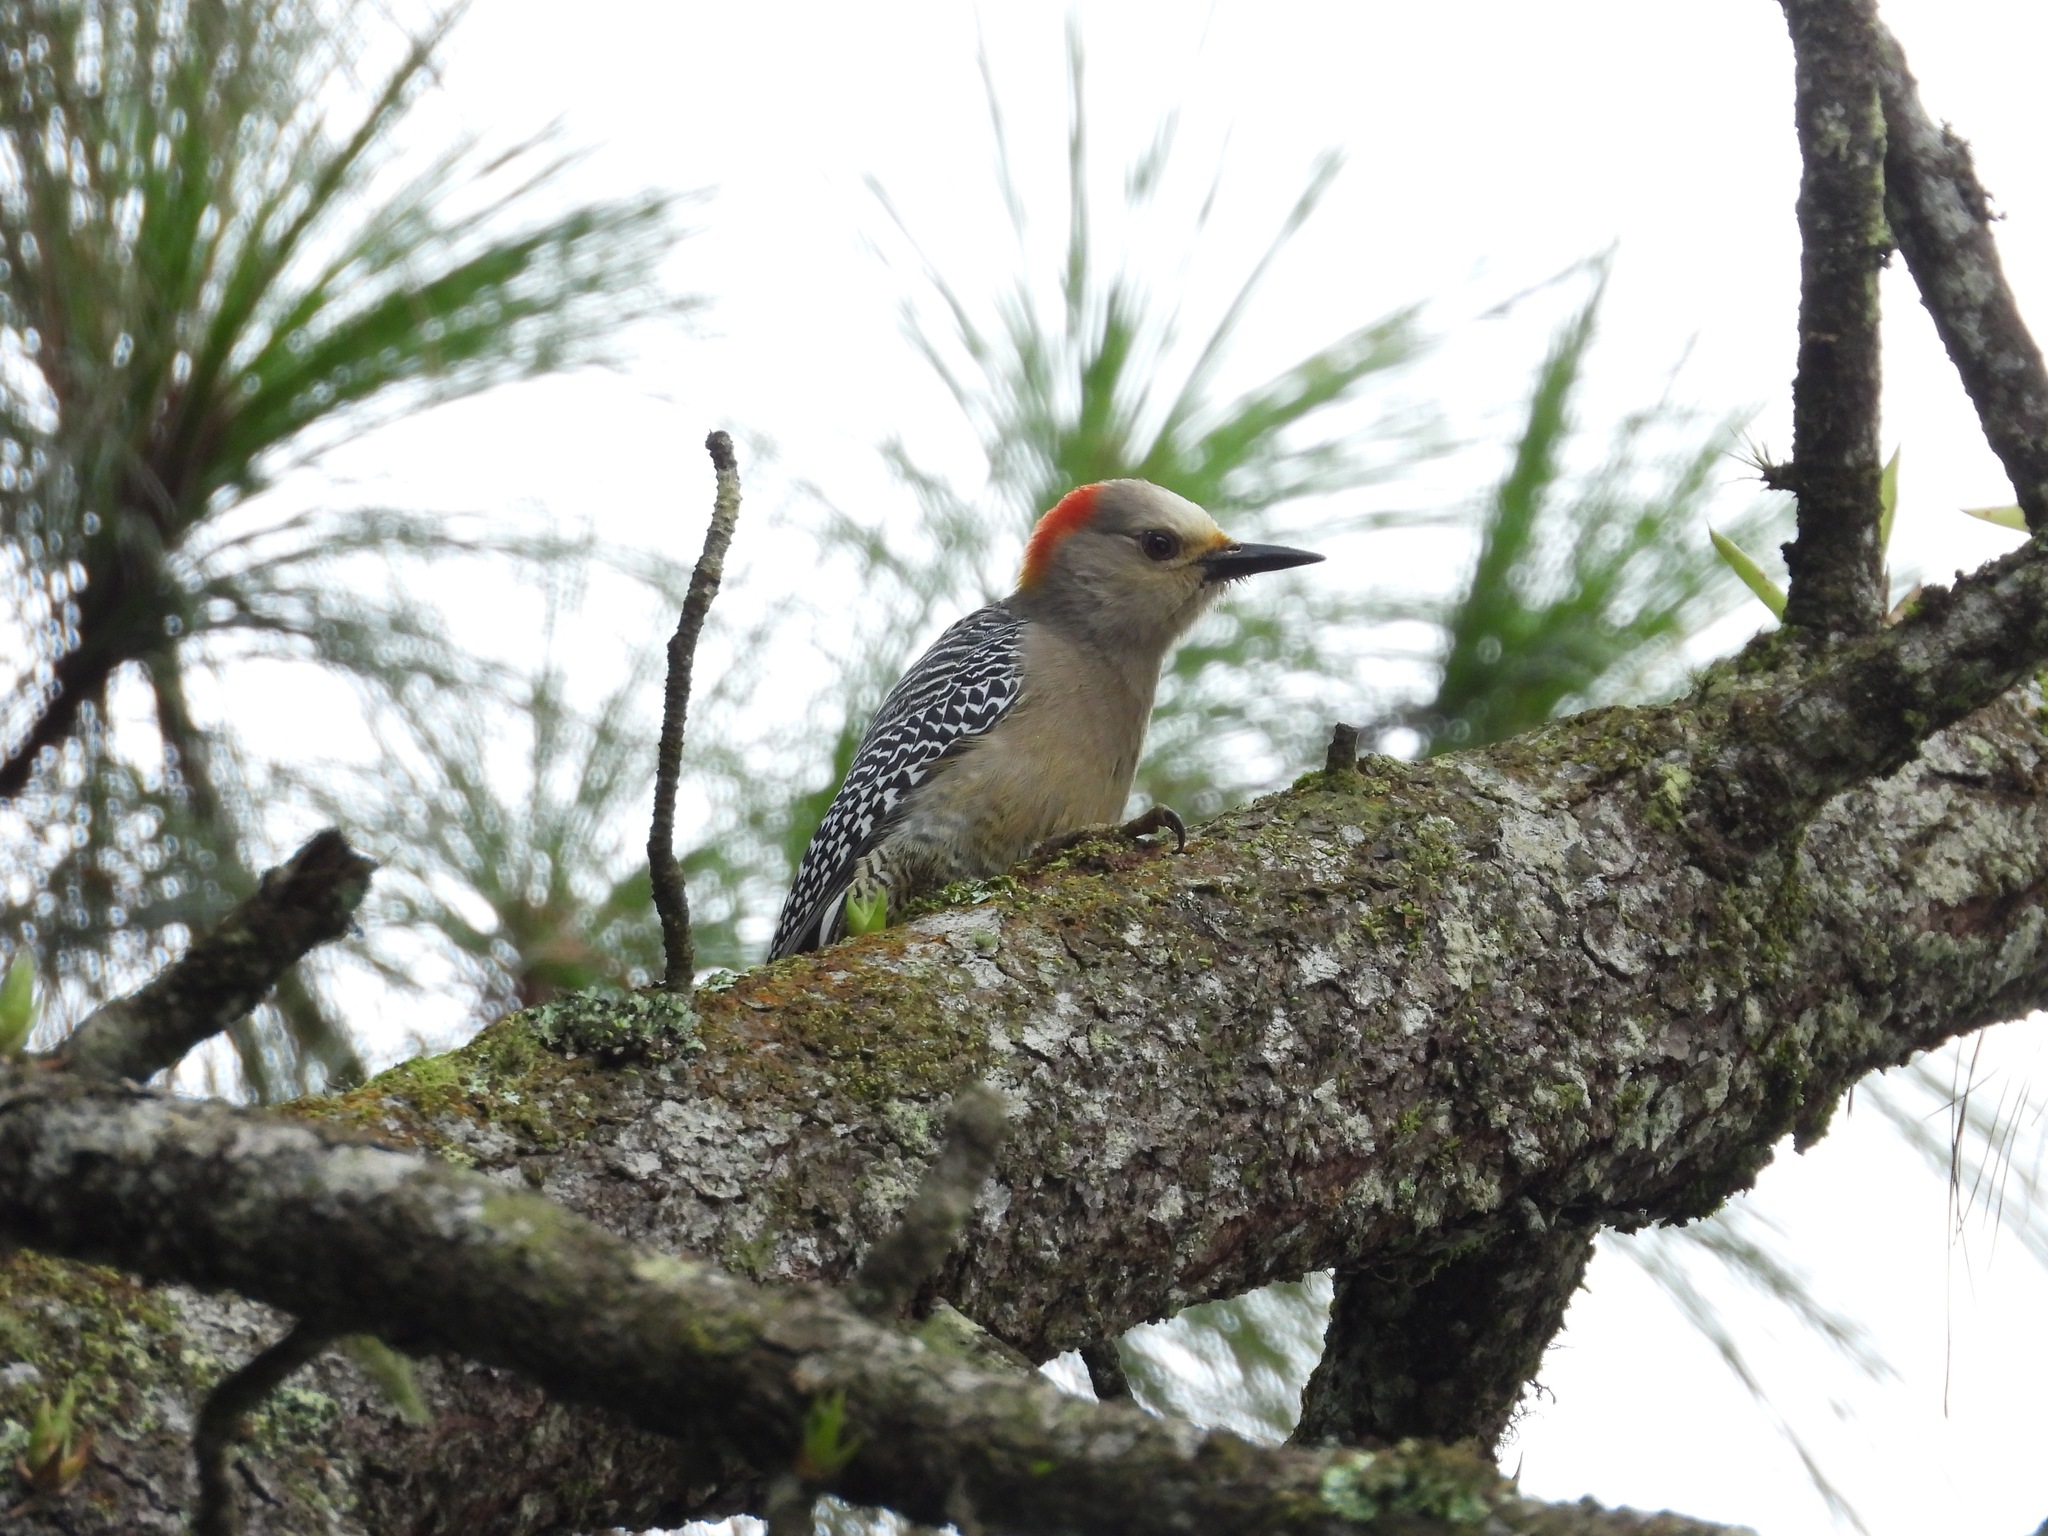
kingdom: Animalia
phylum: Chordata
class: Aves
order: Piciformes
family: Picidae
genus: Melanerpes
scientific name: Melanerpes aurifrons
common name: Golden-fronted woodpecker
